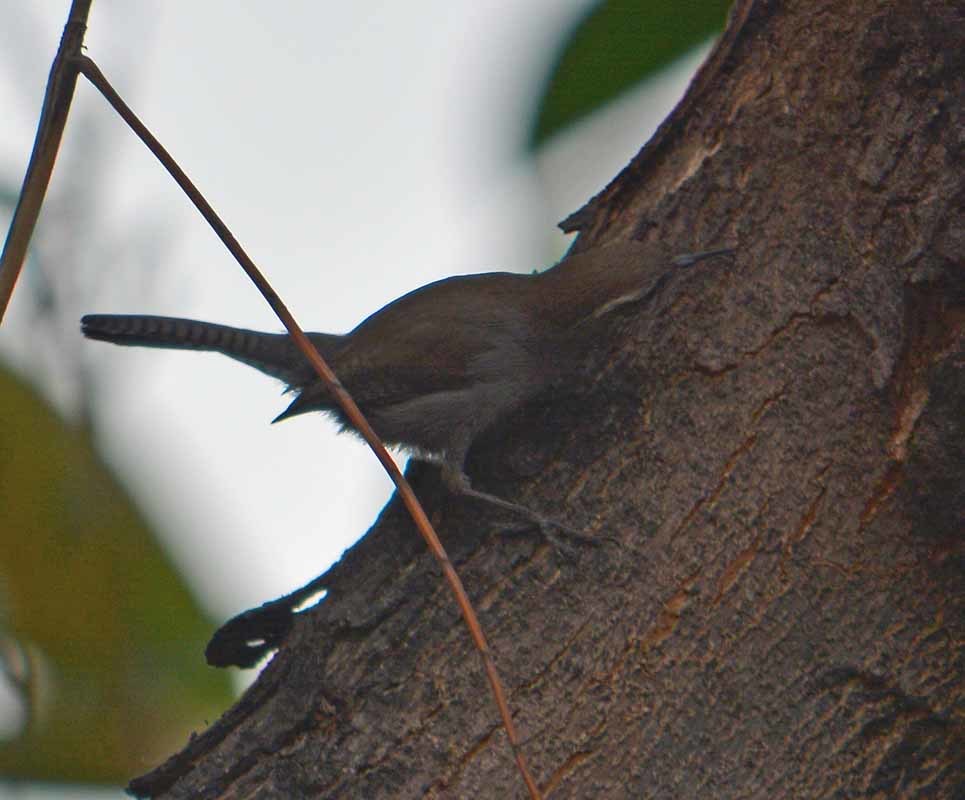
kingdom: Animalia
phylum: Chordata
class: Aves
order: Passeriformes
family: Troglodytidae
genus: Thryomanes
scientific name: Thryomanes bewickii
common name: Bewick's wren
